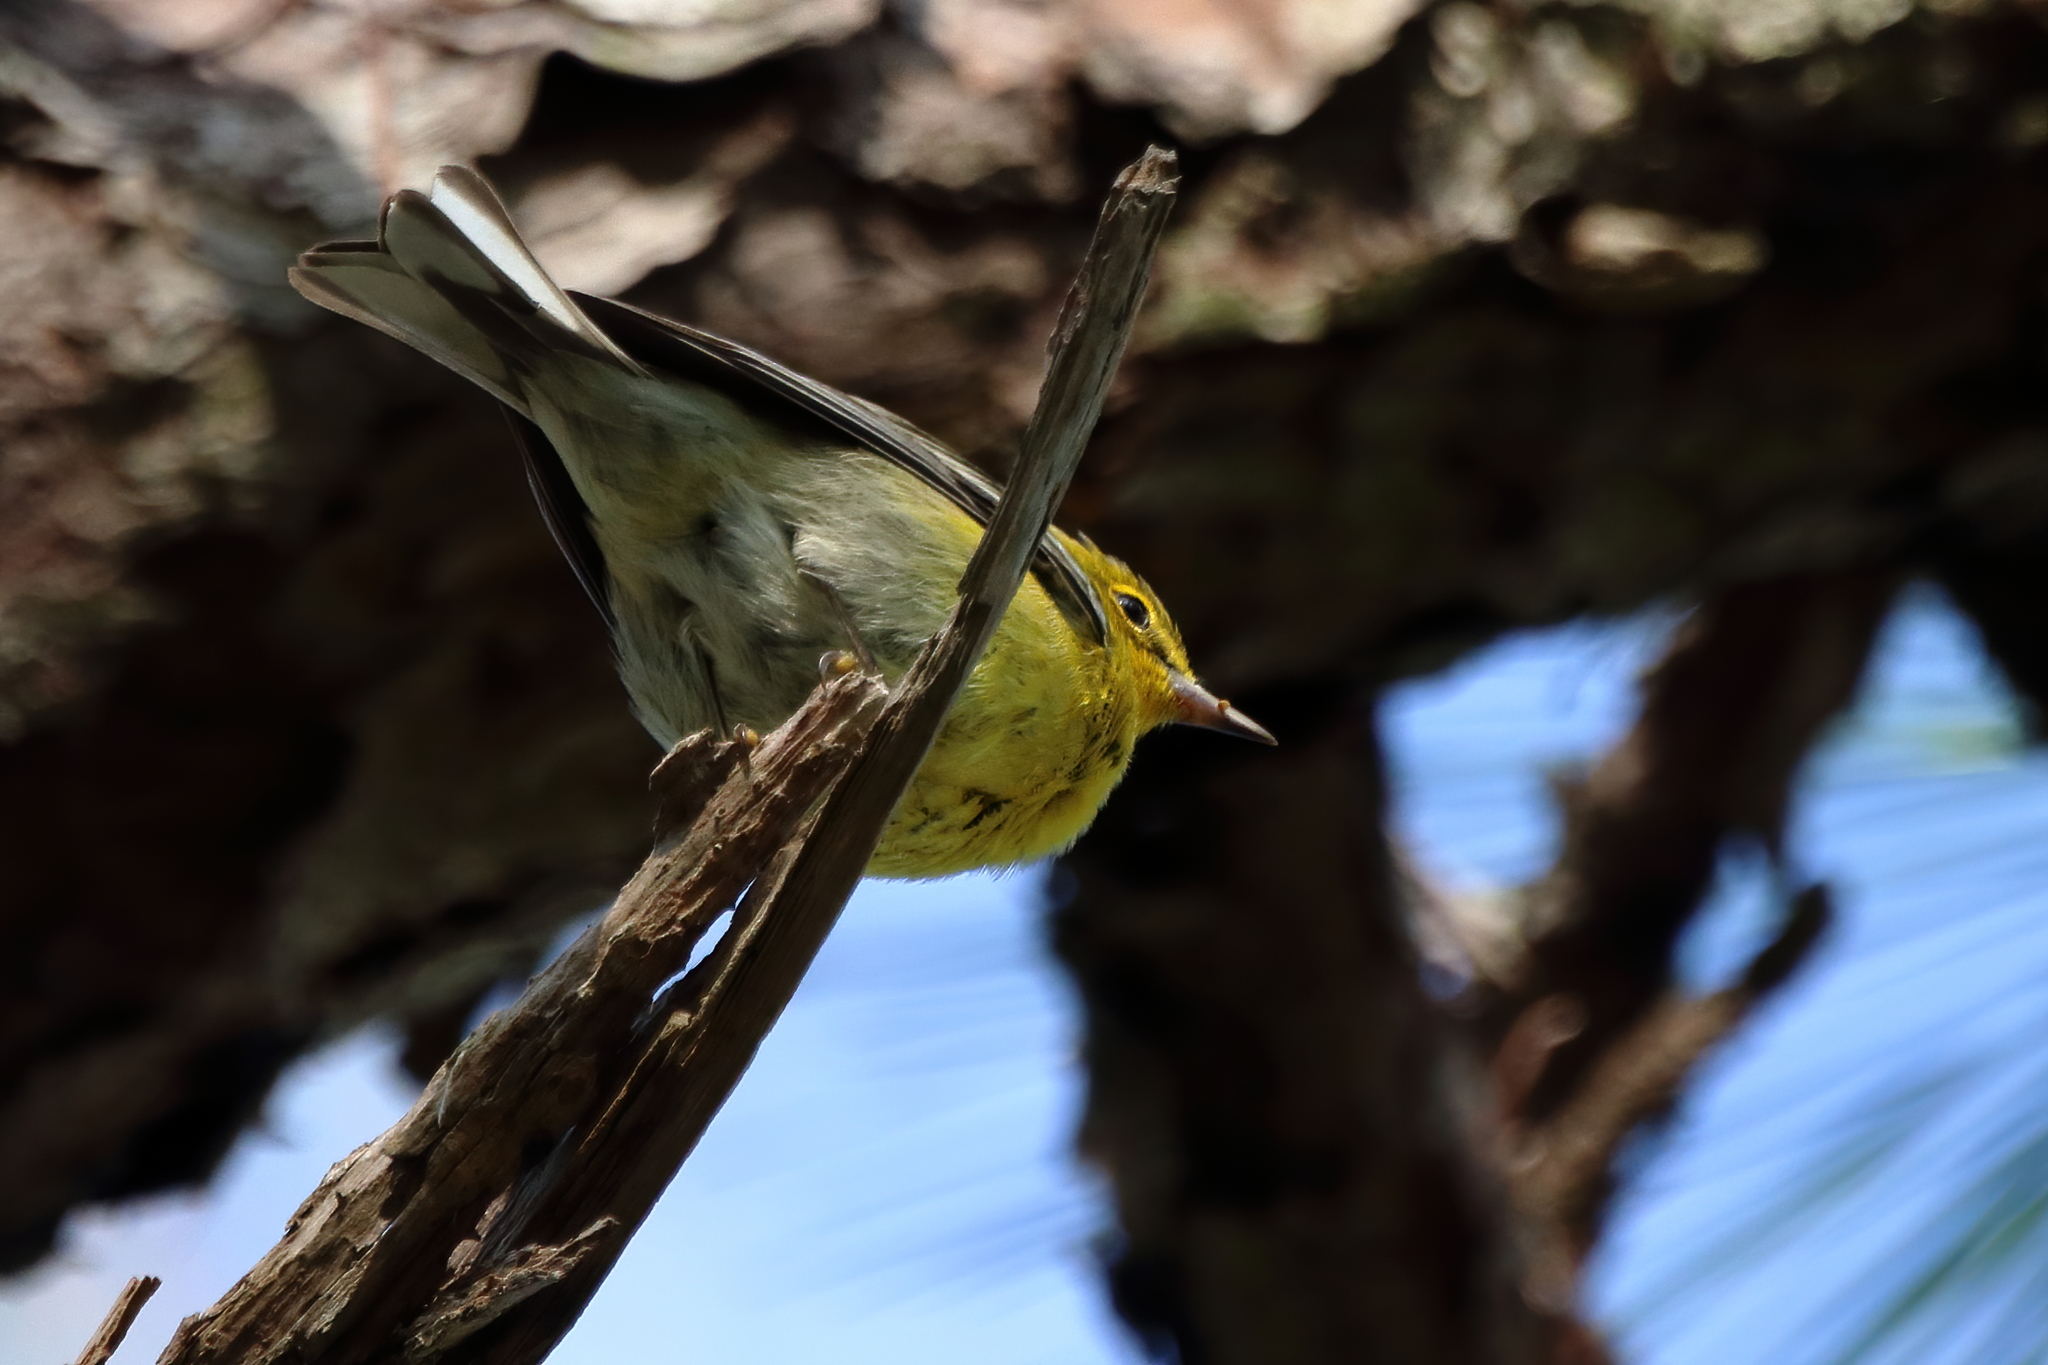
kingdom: Animalia
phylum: Chordata
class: Aves
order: Passeriformes
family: Parulidae
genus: Setophaga
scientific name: Setophaga pinus
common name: Pine warbler
